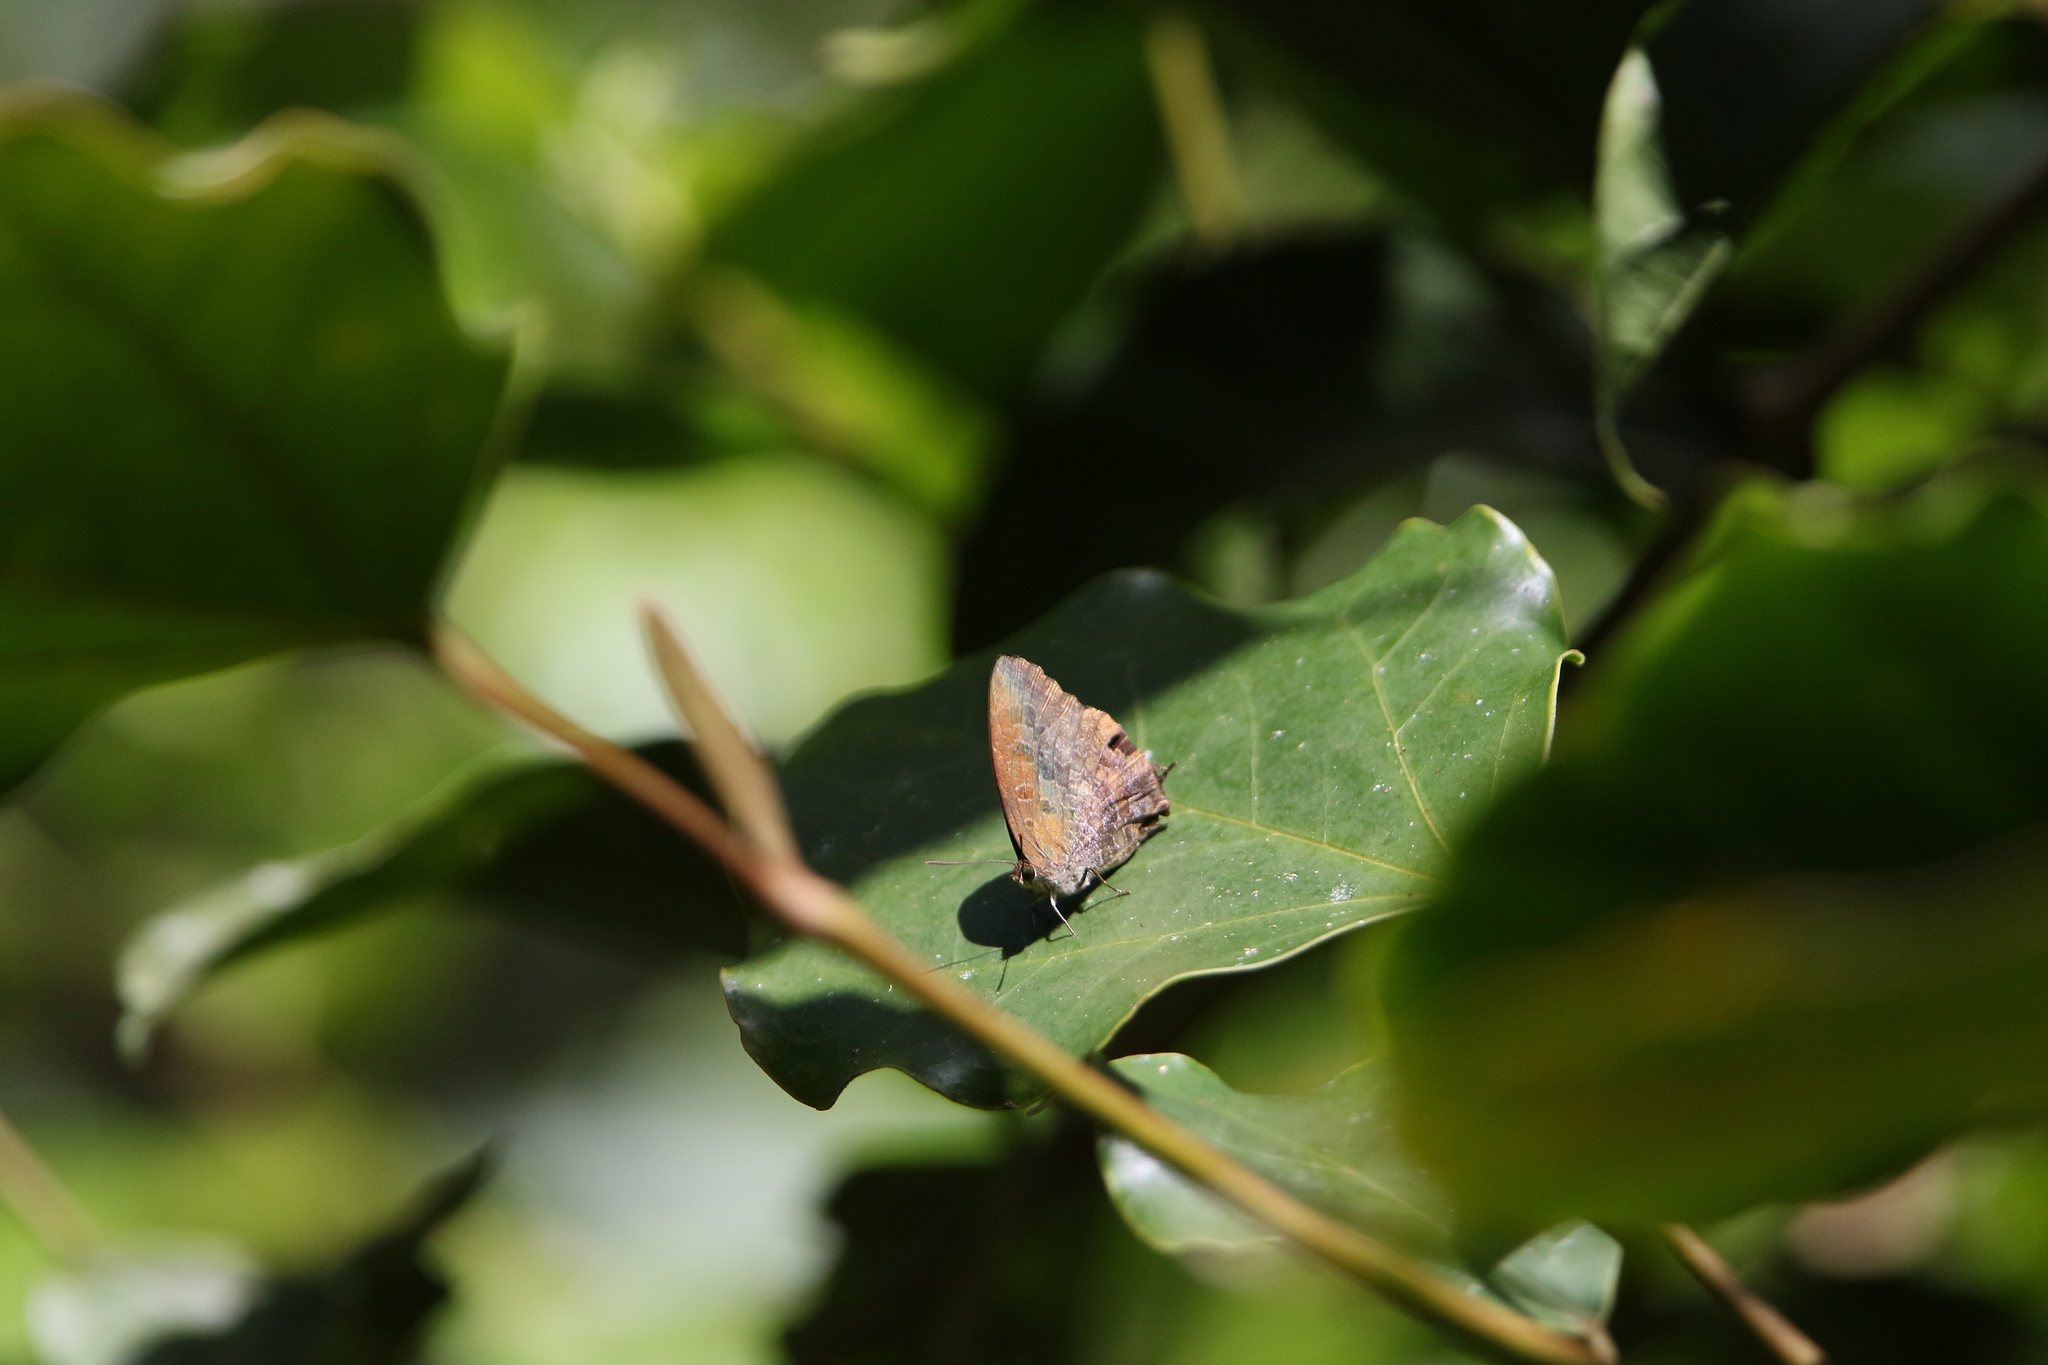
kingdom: Animalia
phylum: Arthropoda
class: Insecta
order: Lepidoptera
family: Lycaenidae
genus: Arhopala
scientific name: Arhopala bazalus
